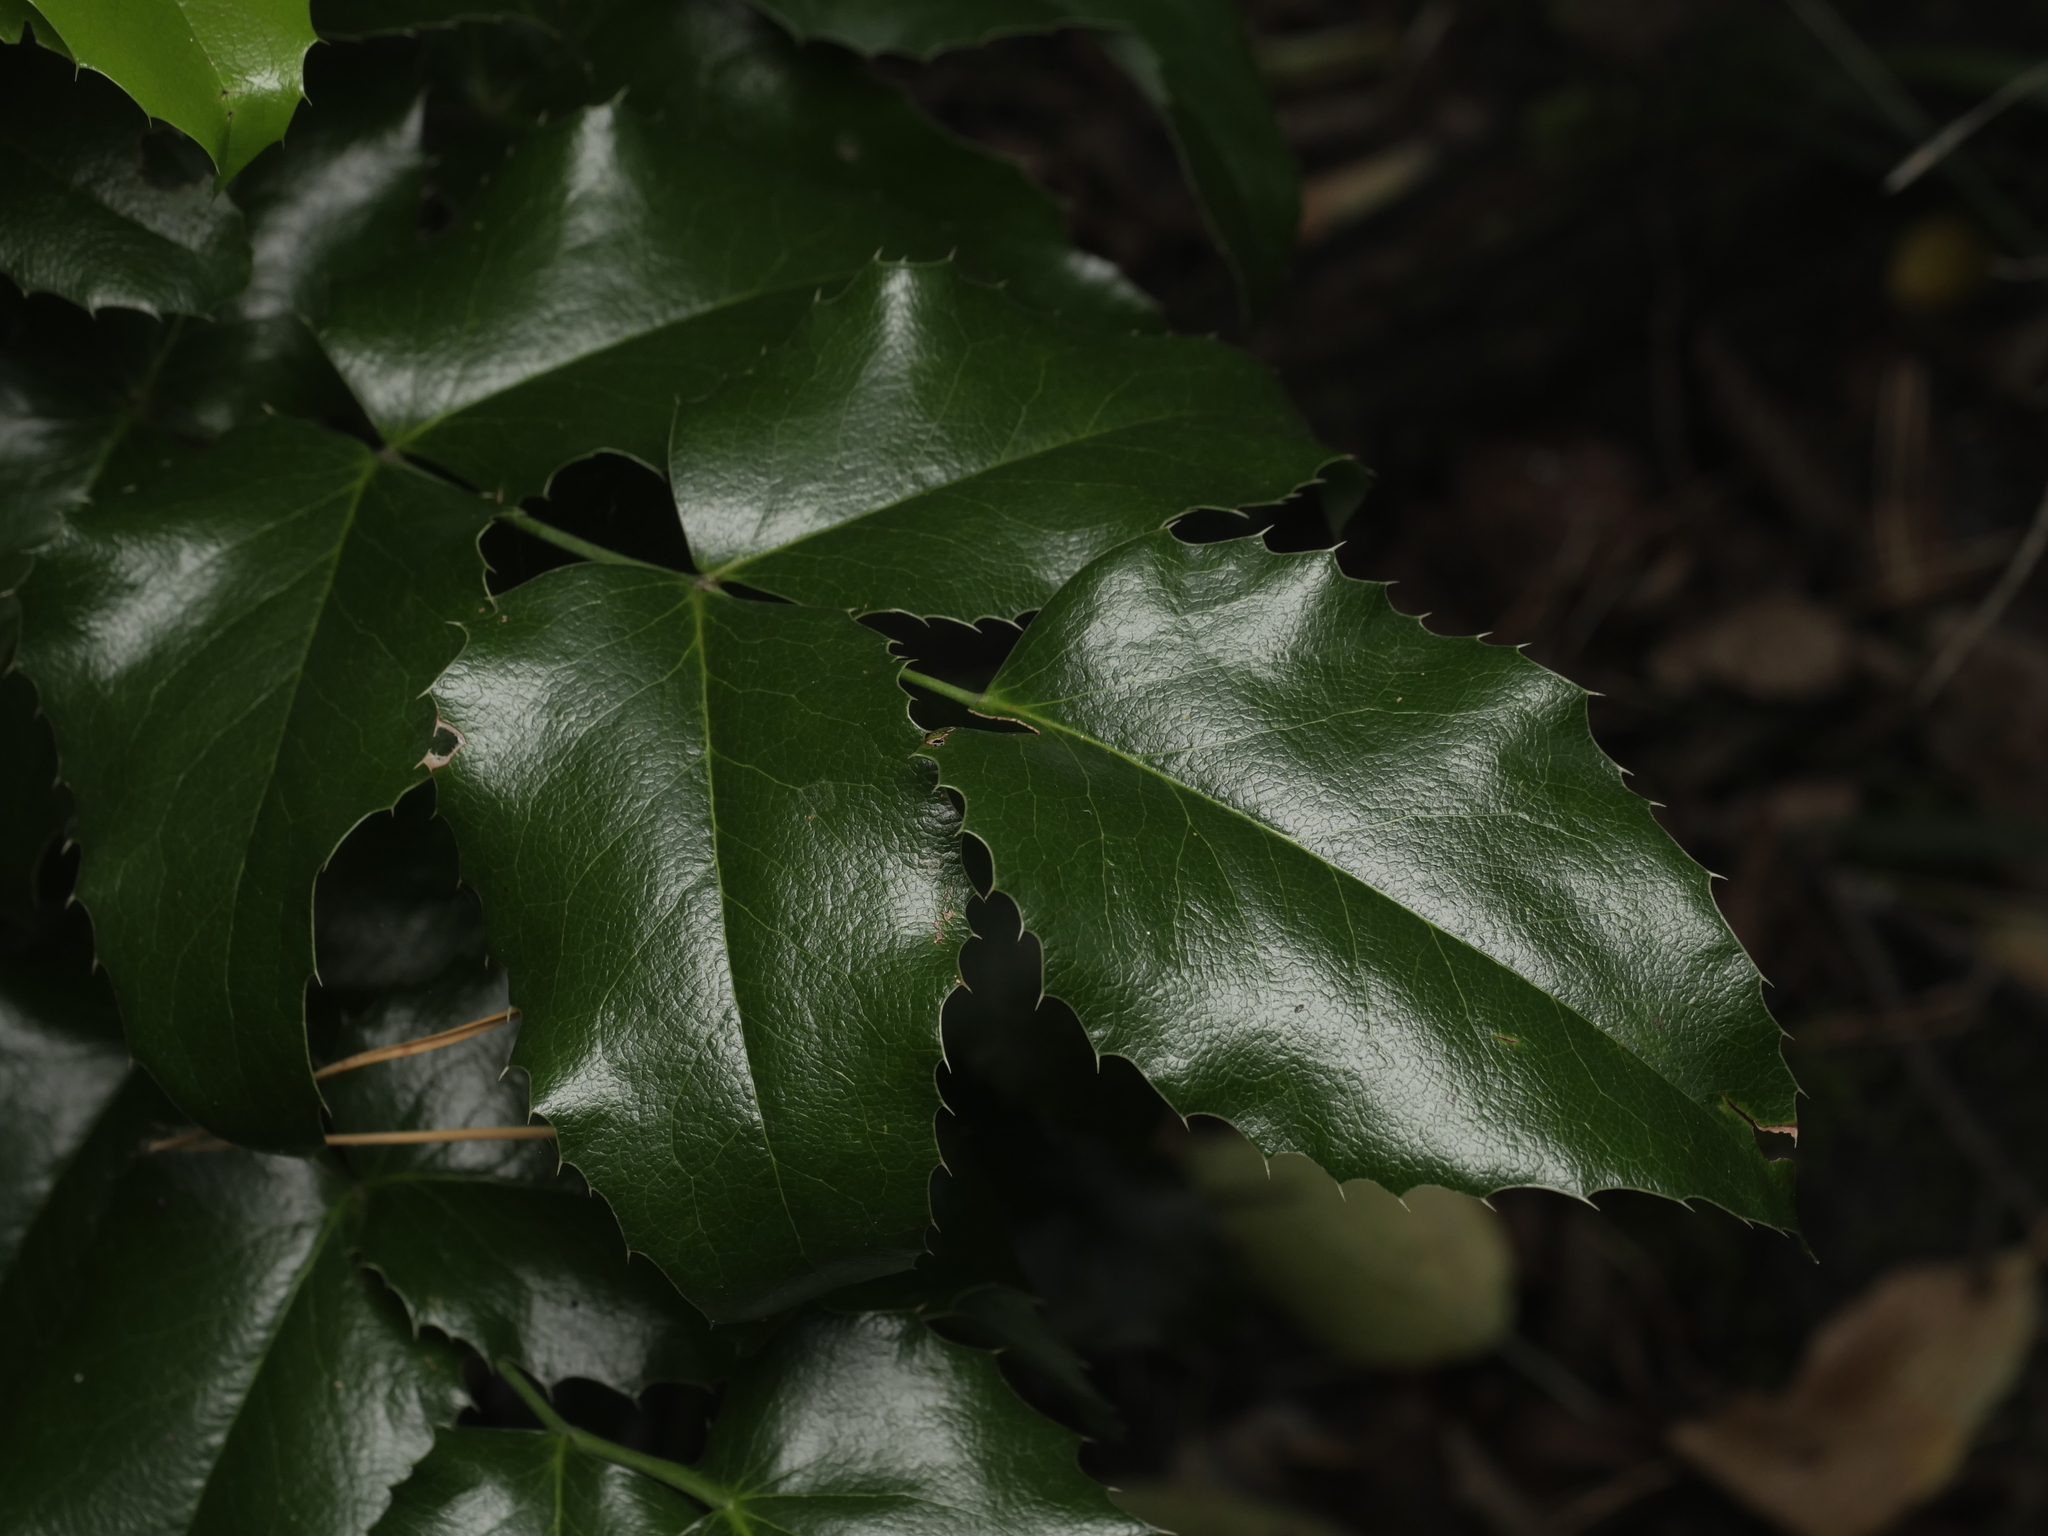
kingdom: Plantae
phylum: Tracheophyta
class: Magnoliopsida
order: Ranunculales
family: Berberidaceae
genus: Mahonia
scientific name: Mahonia aquifolium
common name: Oregon-grape
